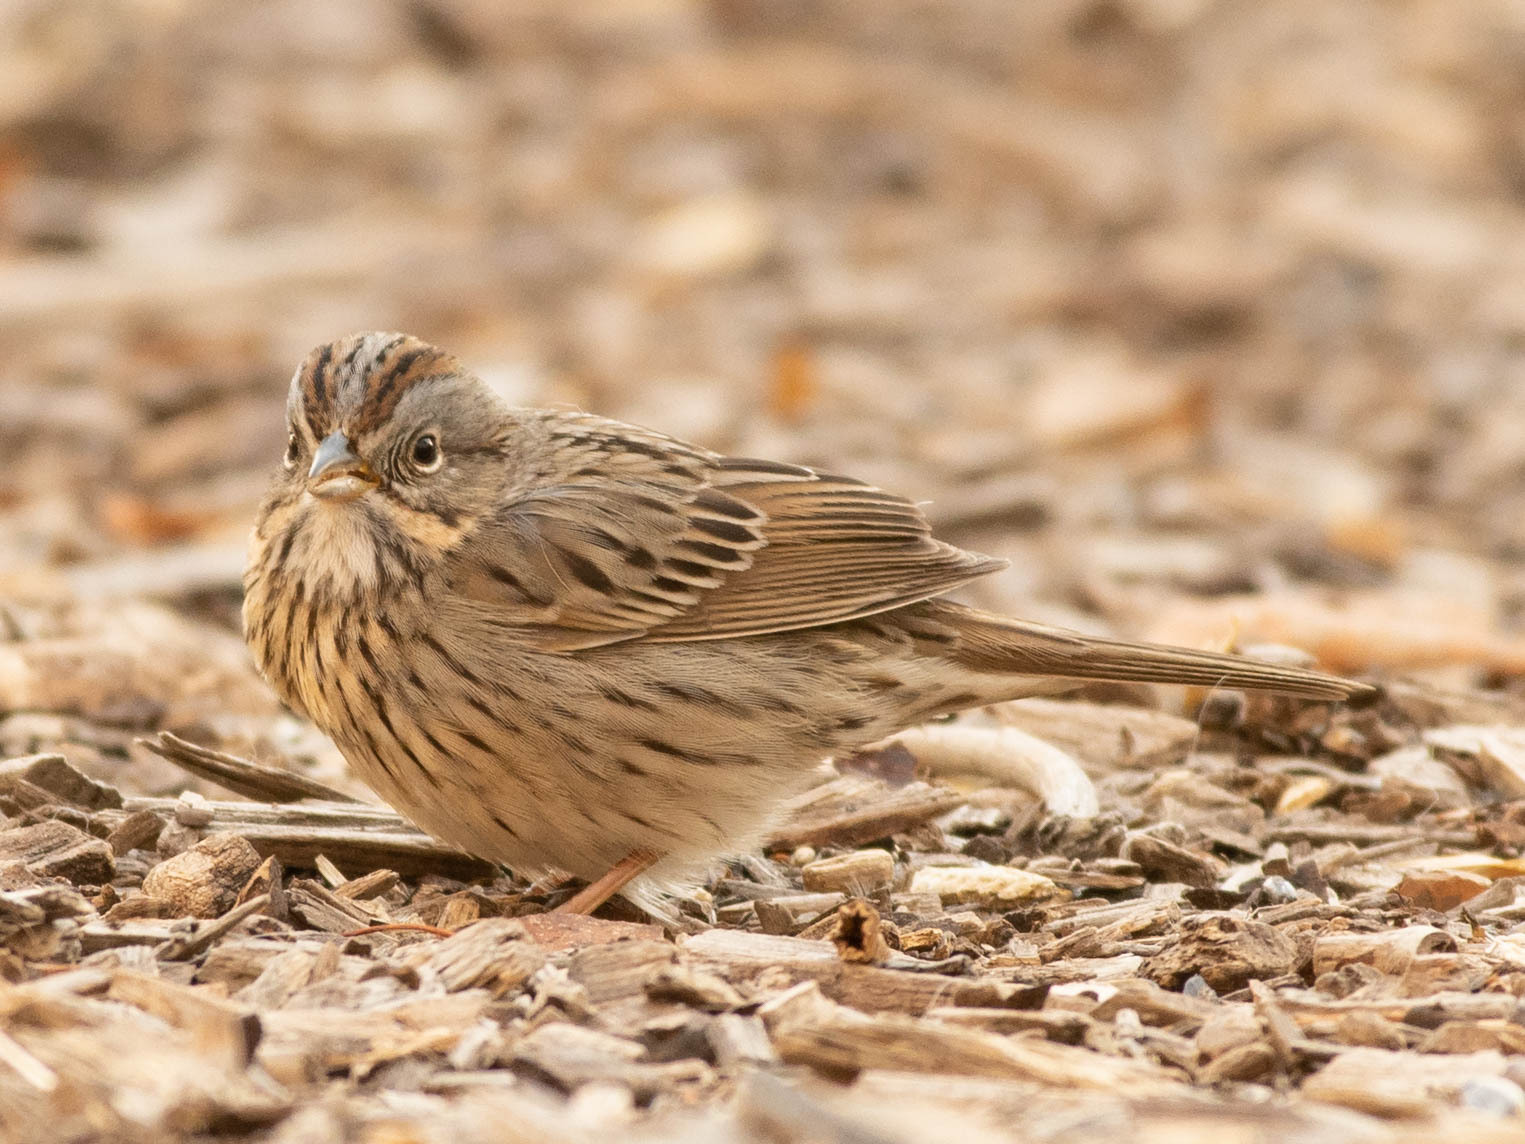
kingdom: Animalia
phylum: Chordata
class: Aves
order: Passeriformes
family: Passerellidae
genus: Melospiza
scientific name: Melospiza lincolnii
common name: Lincoln's sparrow
